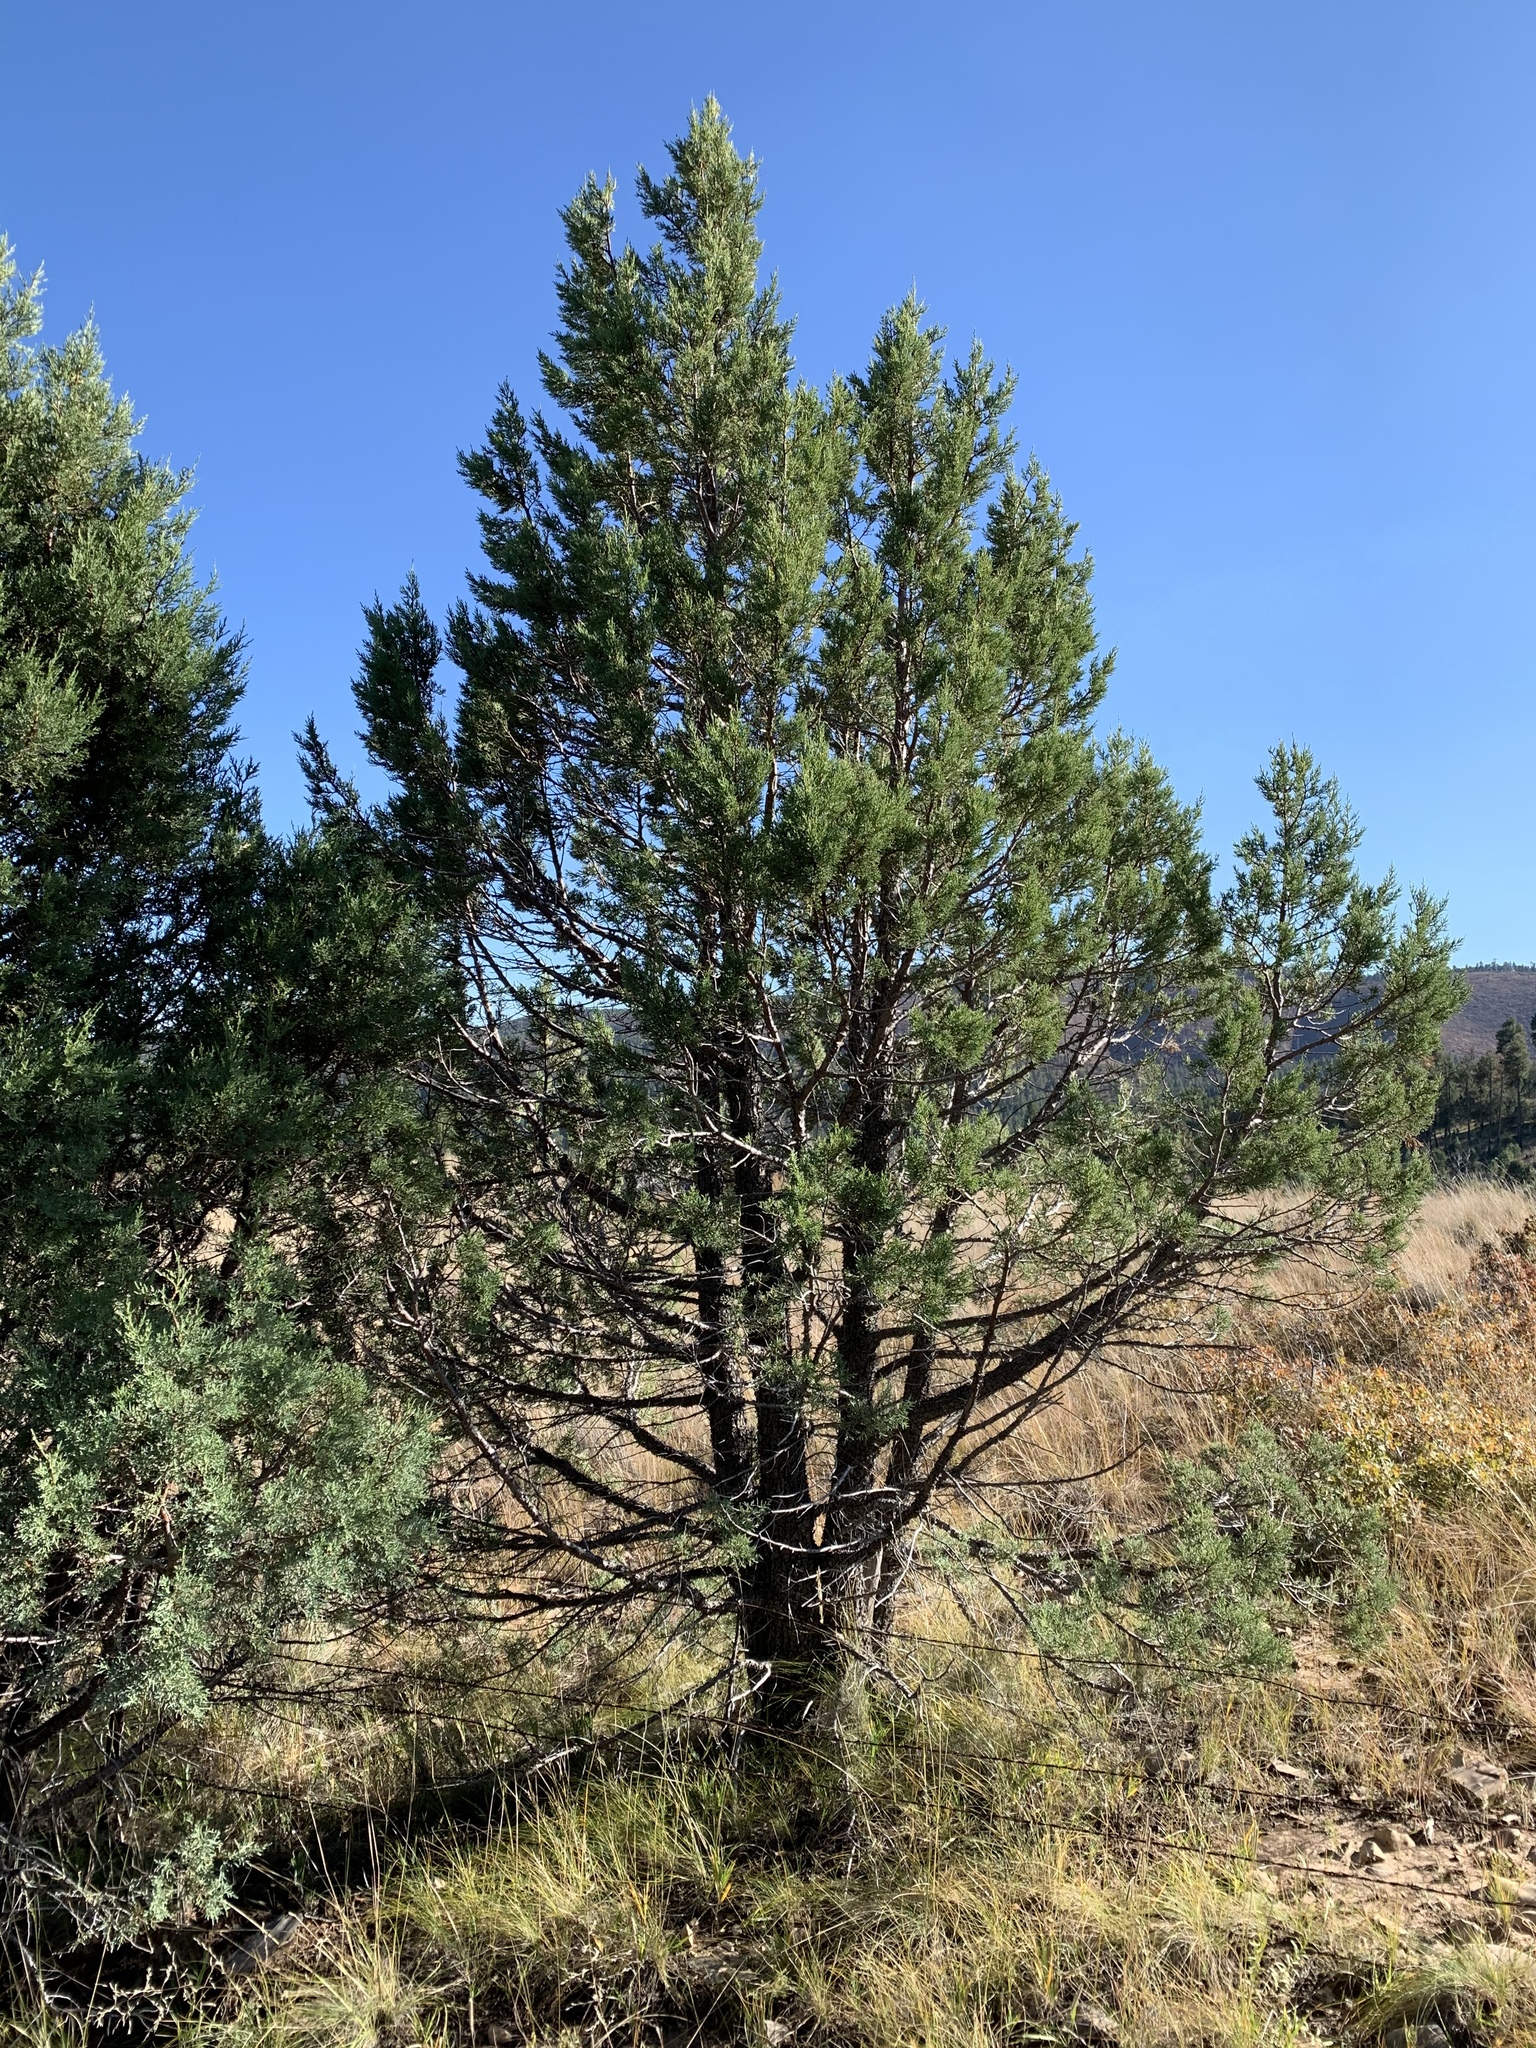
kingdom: Plantae
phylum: Tracheophyta
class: Pinopsida
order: Pinales
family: Cupressaceae
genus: Juniperus
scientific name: Juniperus deppeana
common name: Alligator juniper
